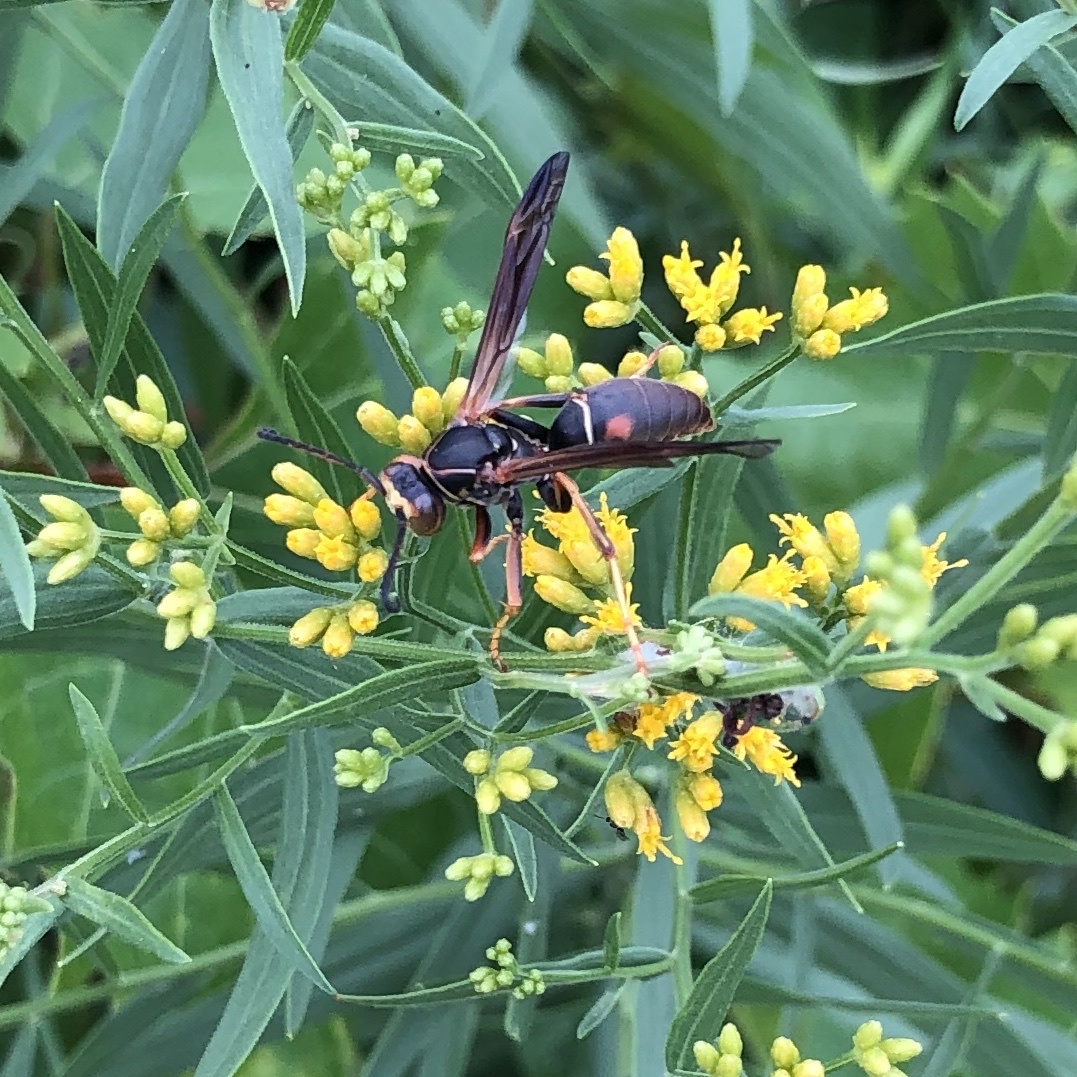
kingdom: Animalia
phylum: Arthropoda
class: Insecta
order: Hymenoptera
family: Eumenidae
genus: Polistes
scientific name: Polistes fuscatus
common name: Dark paper wasp
